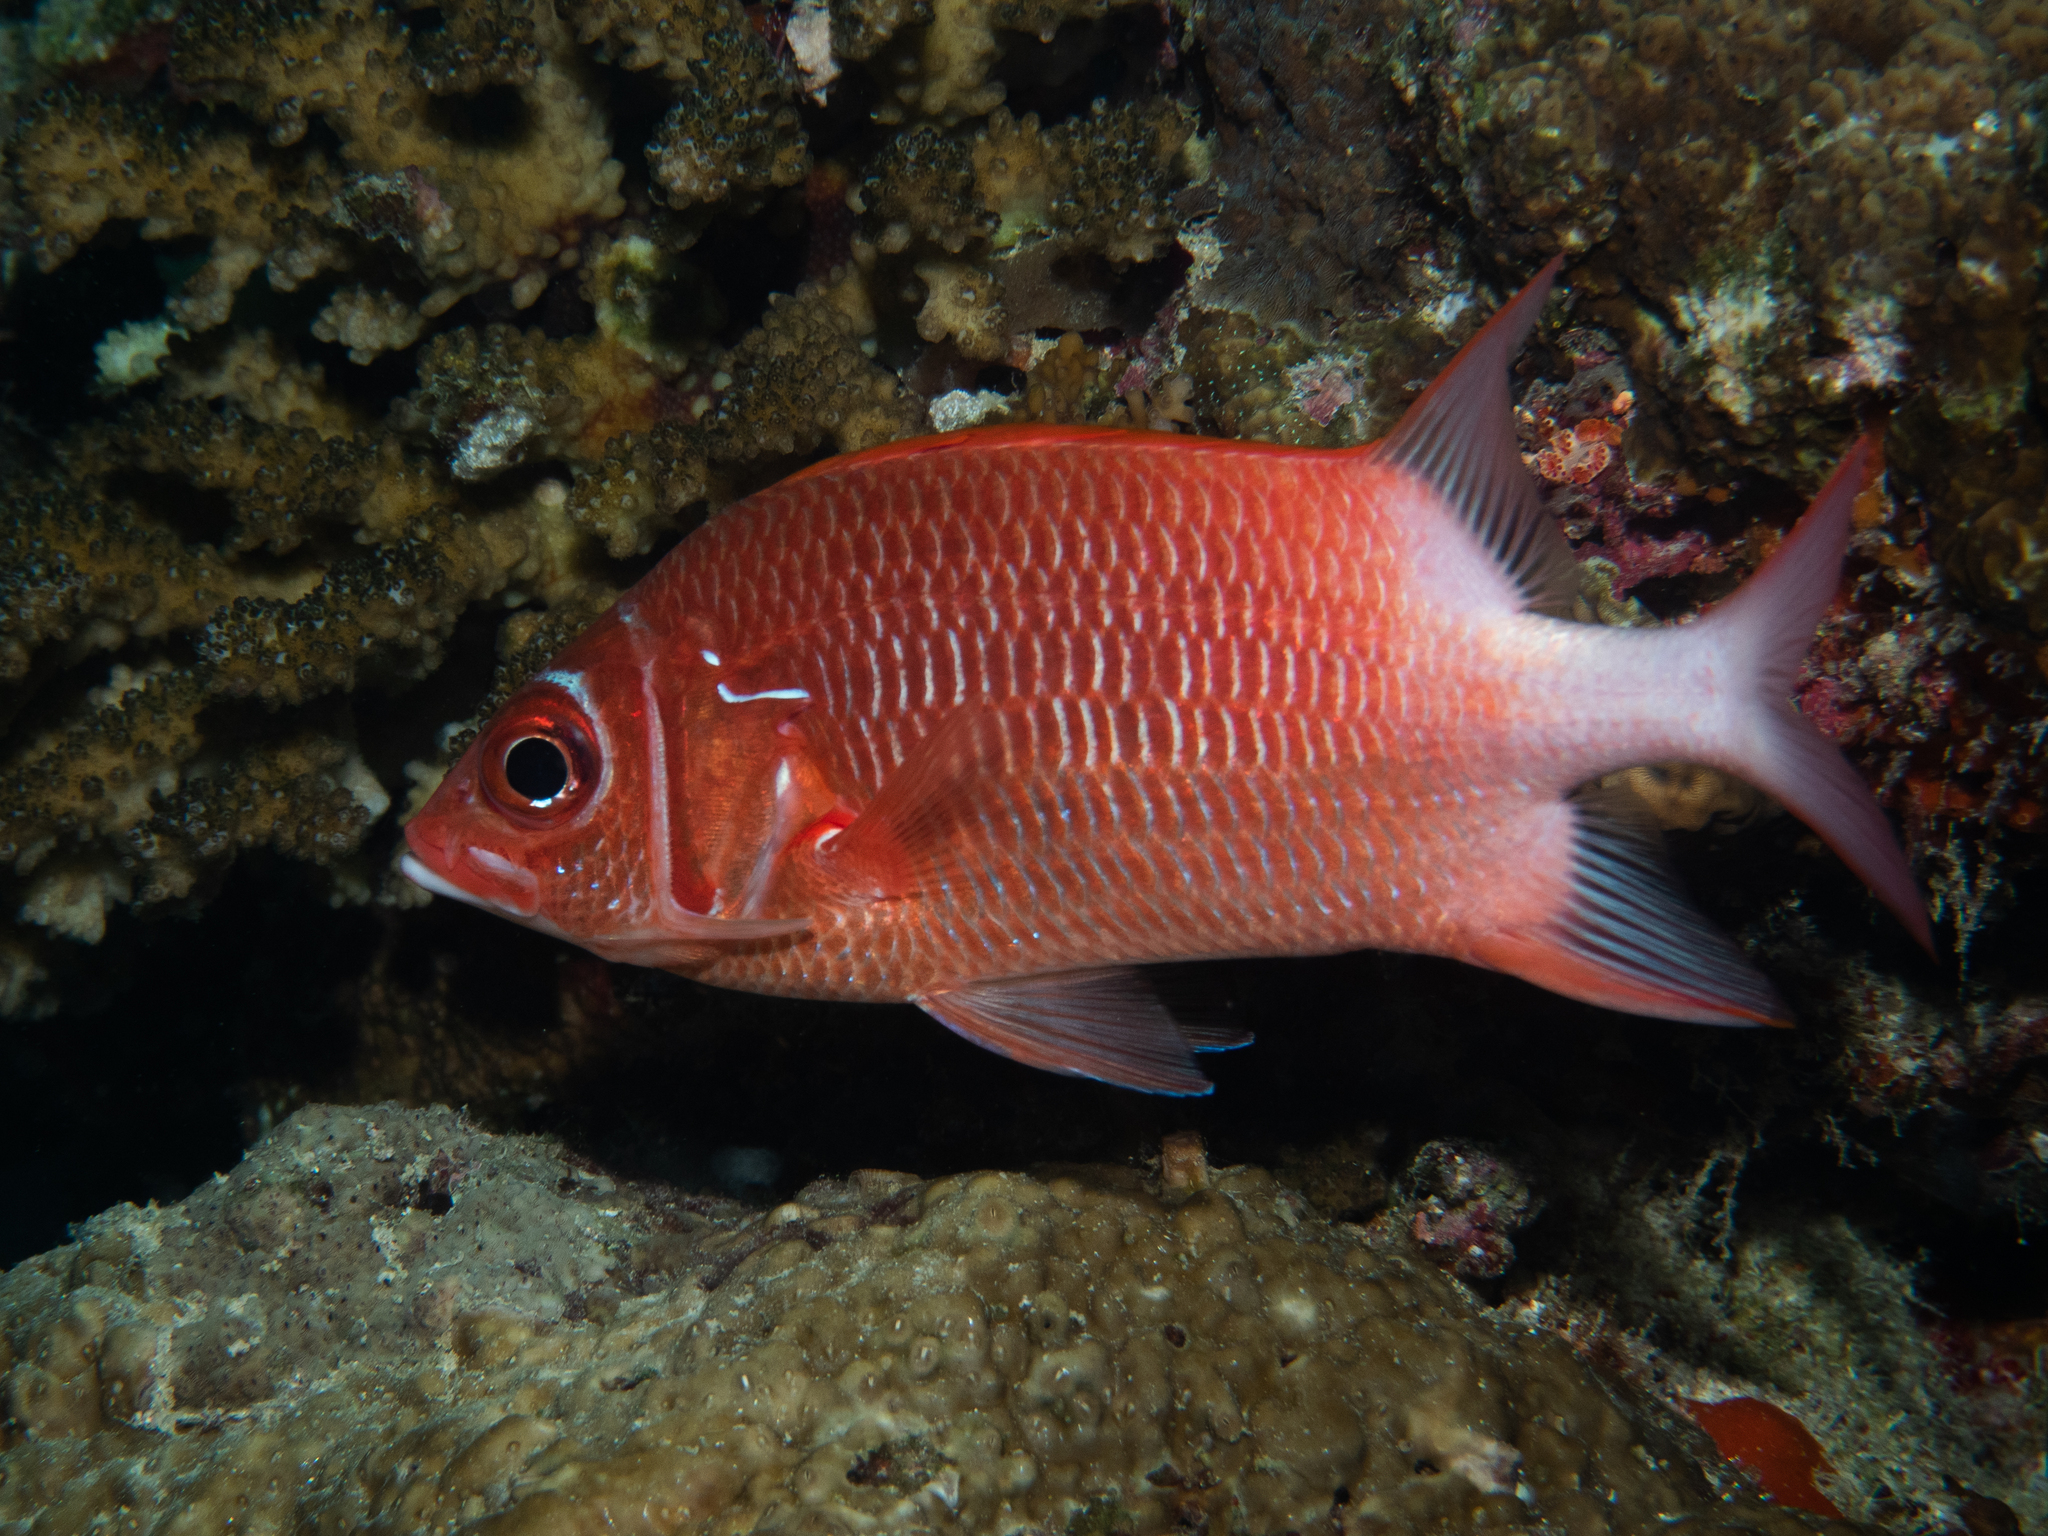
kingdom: Animalia
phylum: Chordata
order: Beryciformes
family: Holocentridae
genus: Sargocentron
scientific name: Sargocentron caudimaculatum
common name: Fanfin soldier
